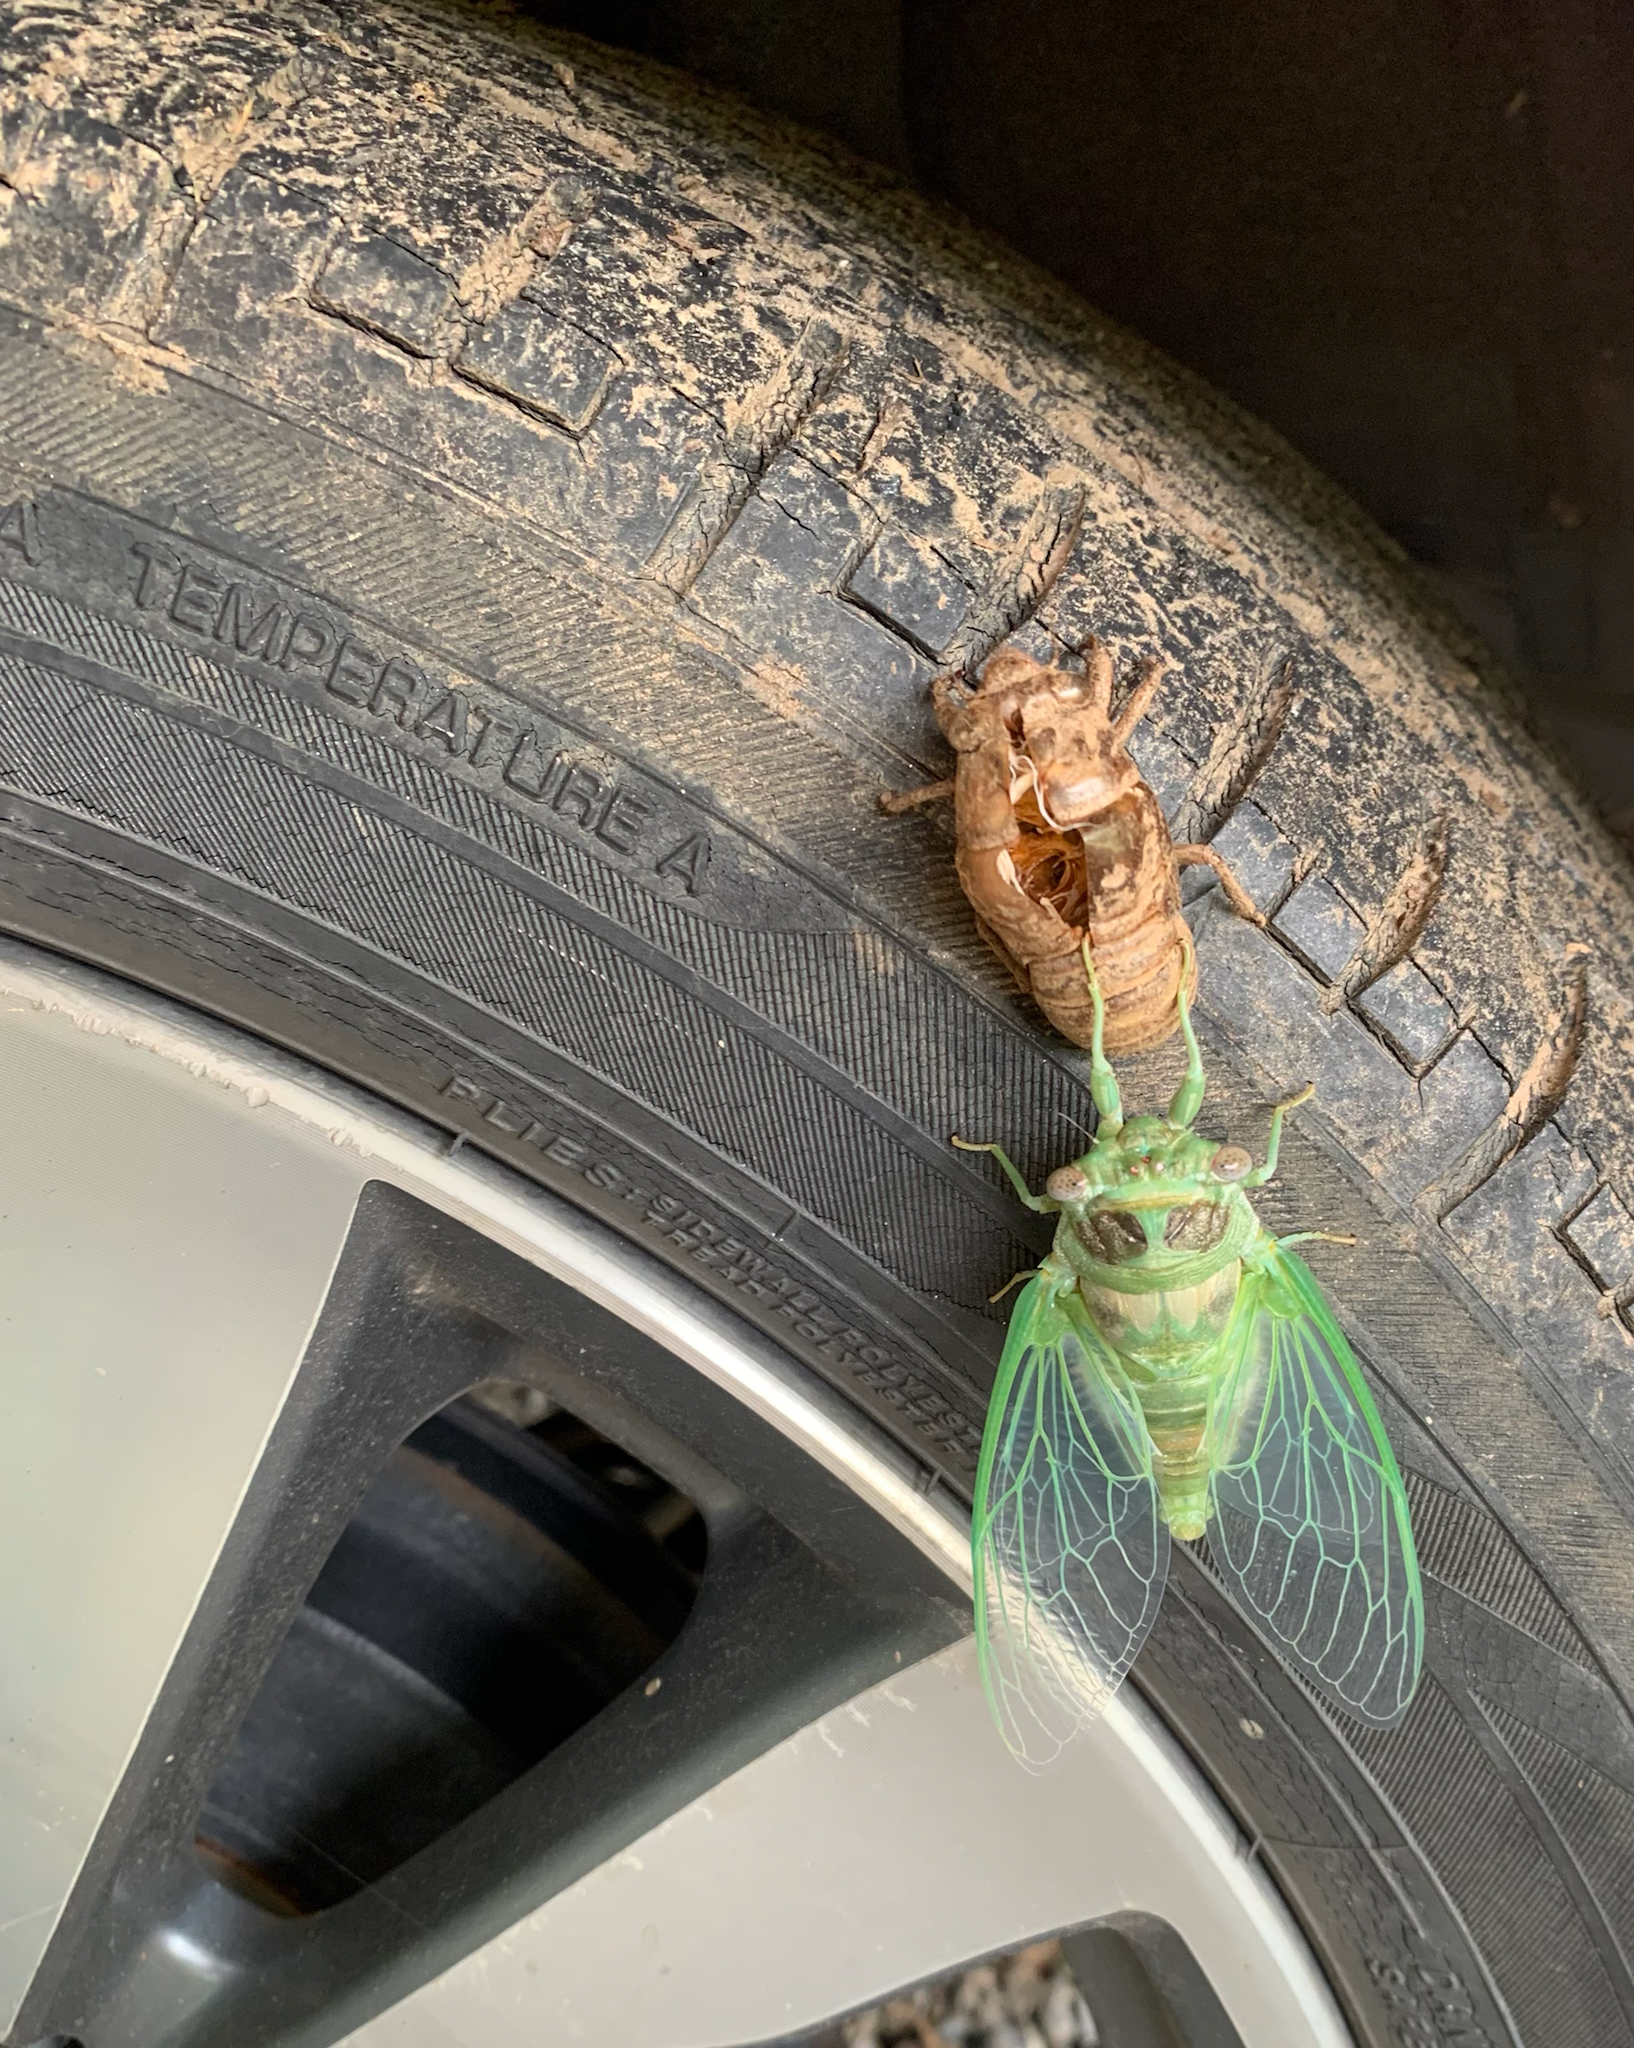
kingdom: Animalia
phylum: Arthropoda
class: Insecta
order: Hemiptera
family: Cicadidae
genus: Diceroprocta
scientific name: Diceroprocta grossa
